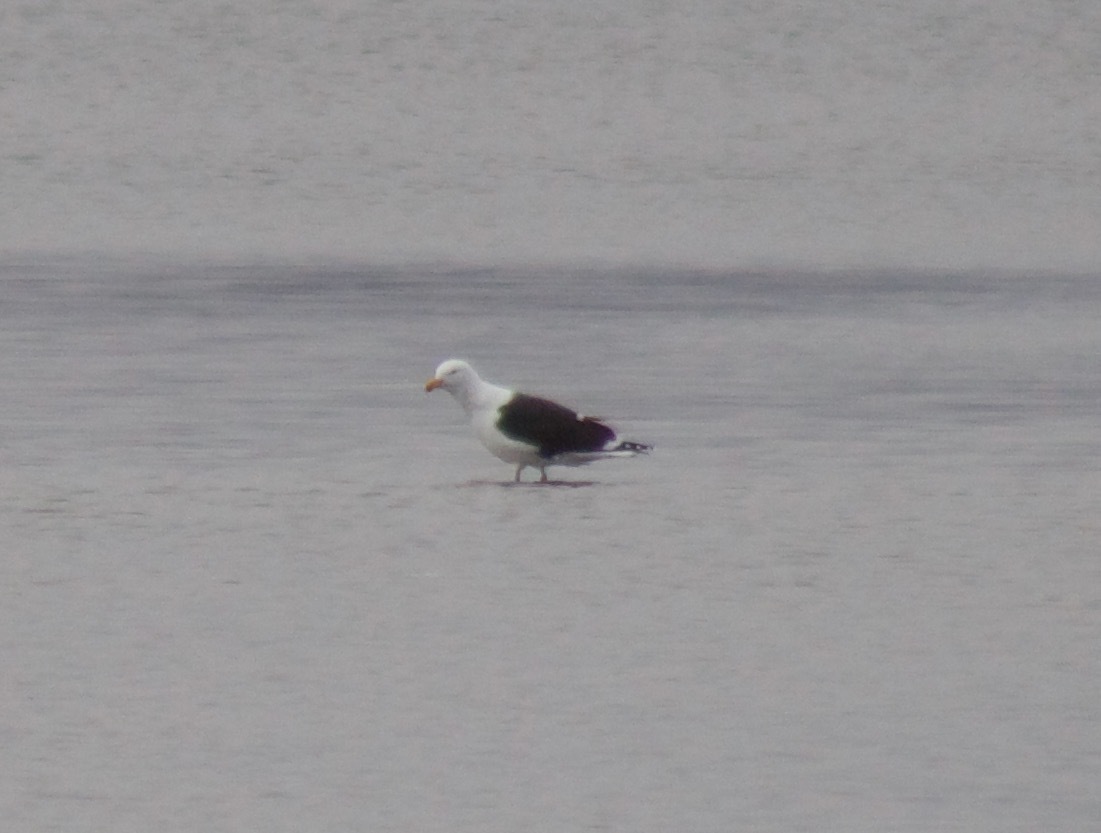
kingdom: Animalia
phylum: Chordata
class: Aves
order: Charadriiformes
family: Laridae
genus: Larus
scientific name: Larus marinus
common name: Great black-backed gull
